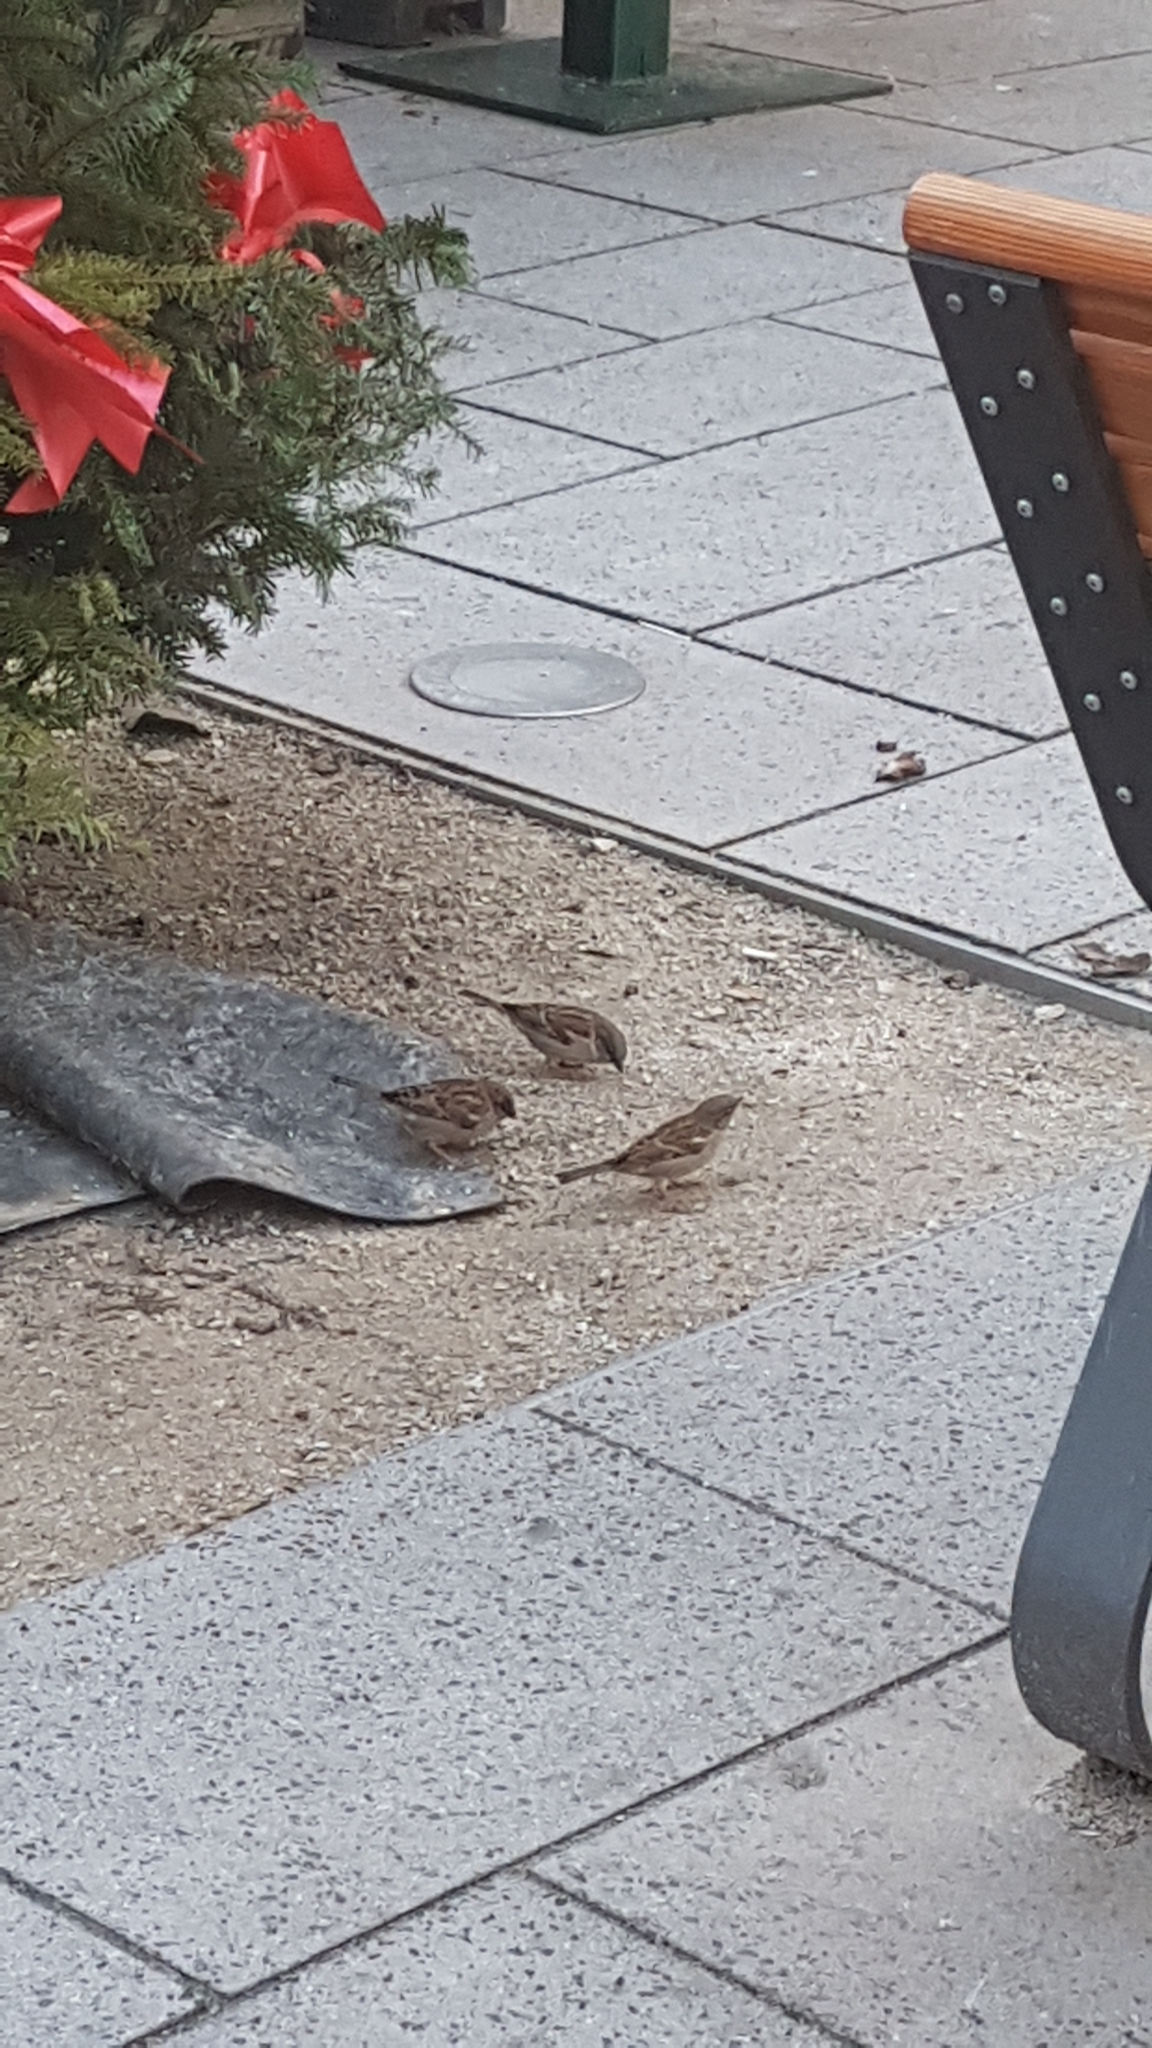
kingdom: Animalia
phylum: Chordata
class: Aves
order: Passeriformes
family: Passeridae
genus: Passer
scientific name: Passer domesticus
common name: House sparrow
